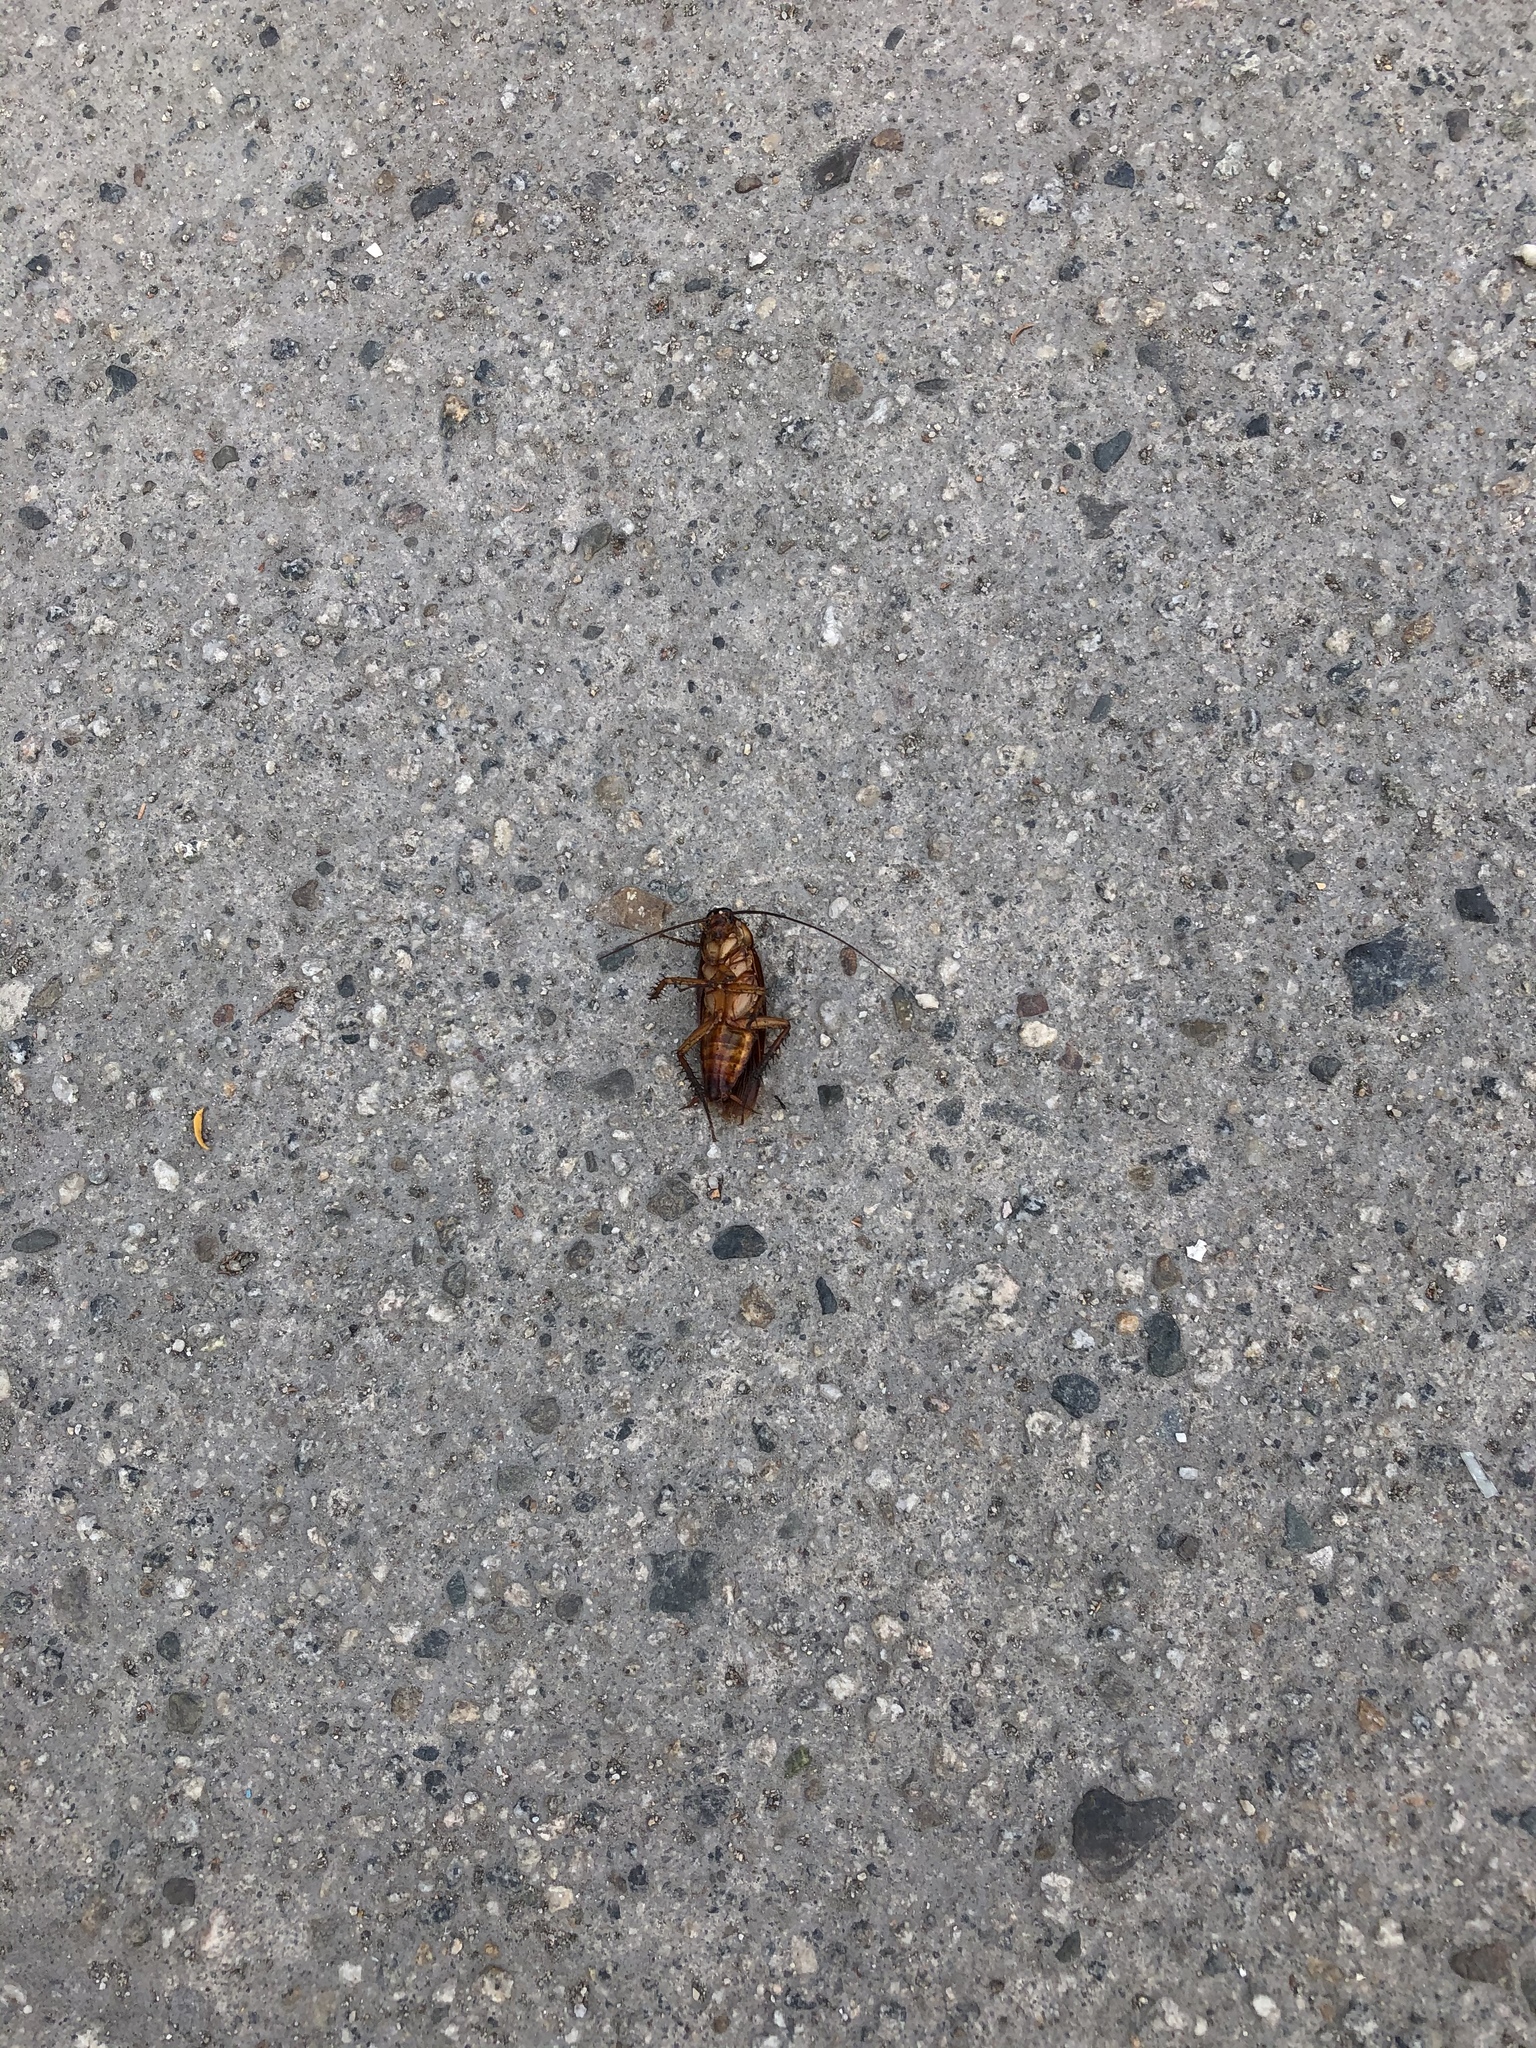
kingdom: Animalia
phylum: Arthropoda
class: Insecta
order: Blattodea
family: Blattidae
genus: Periplaneta
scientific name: Periplaneta americana
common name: American cockroach
